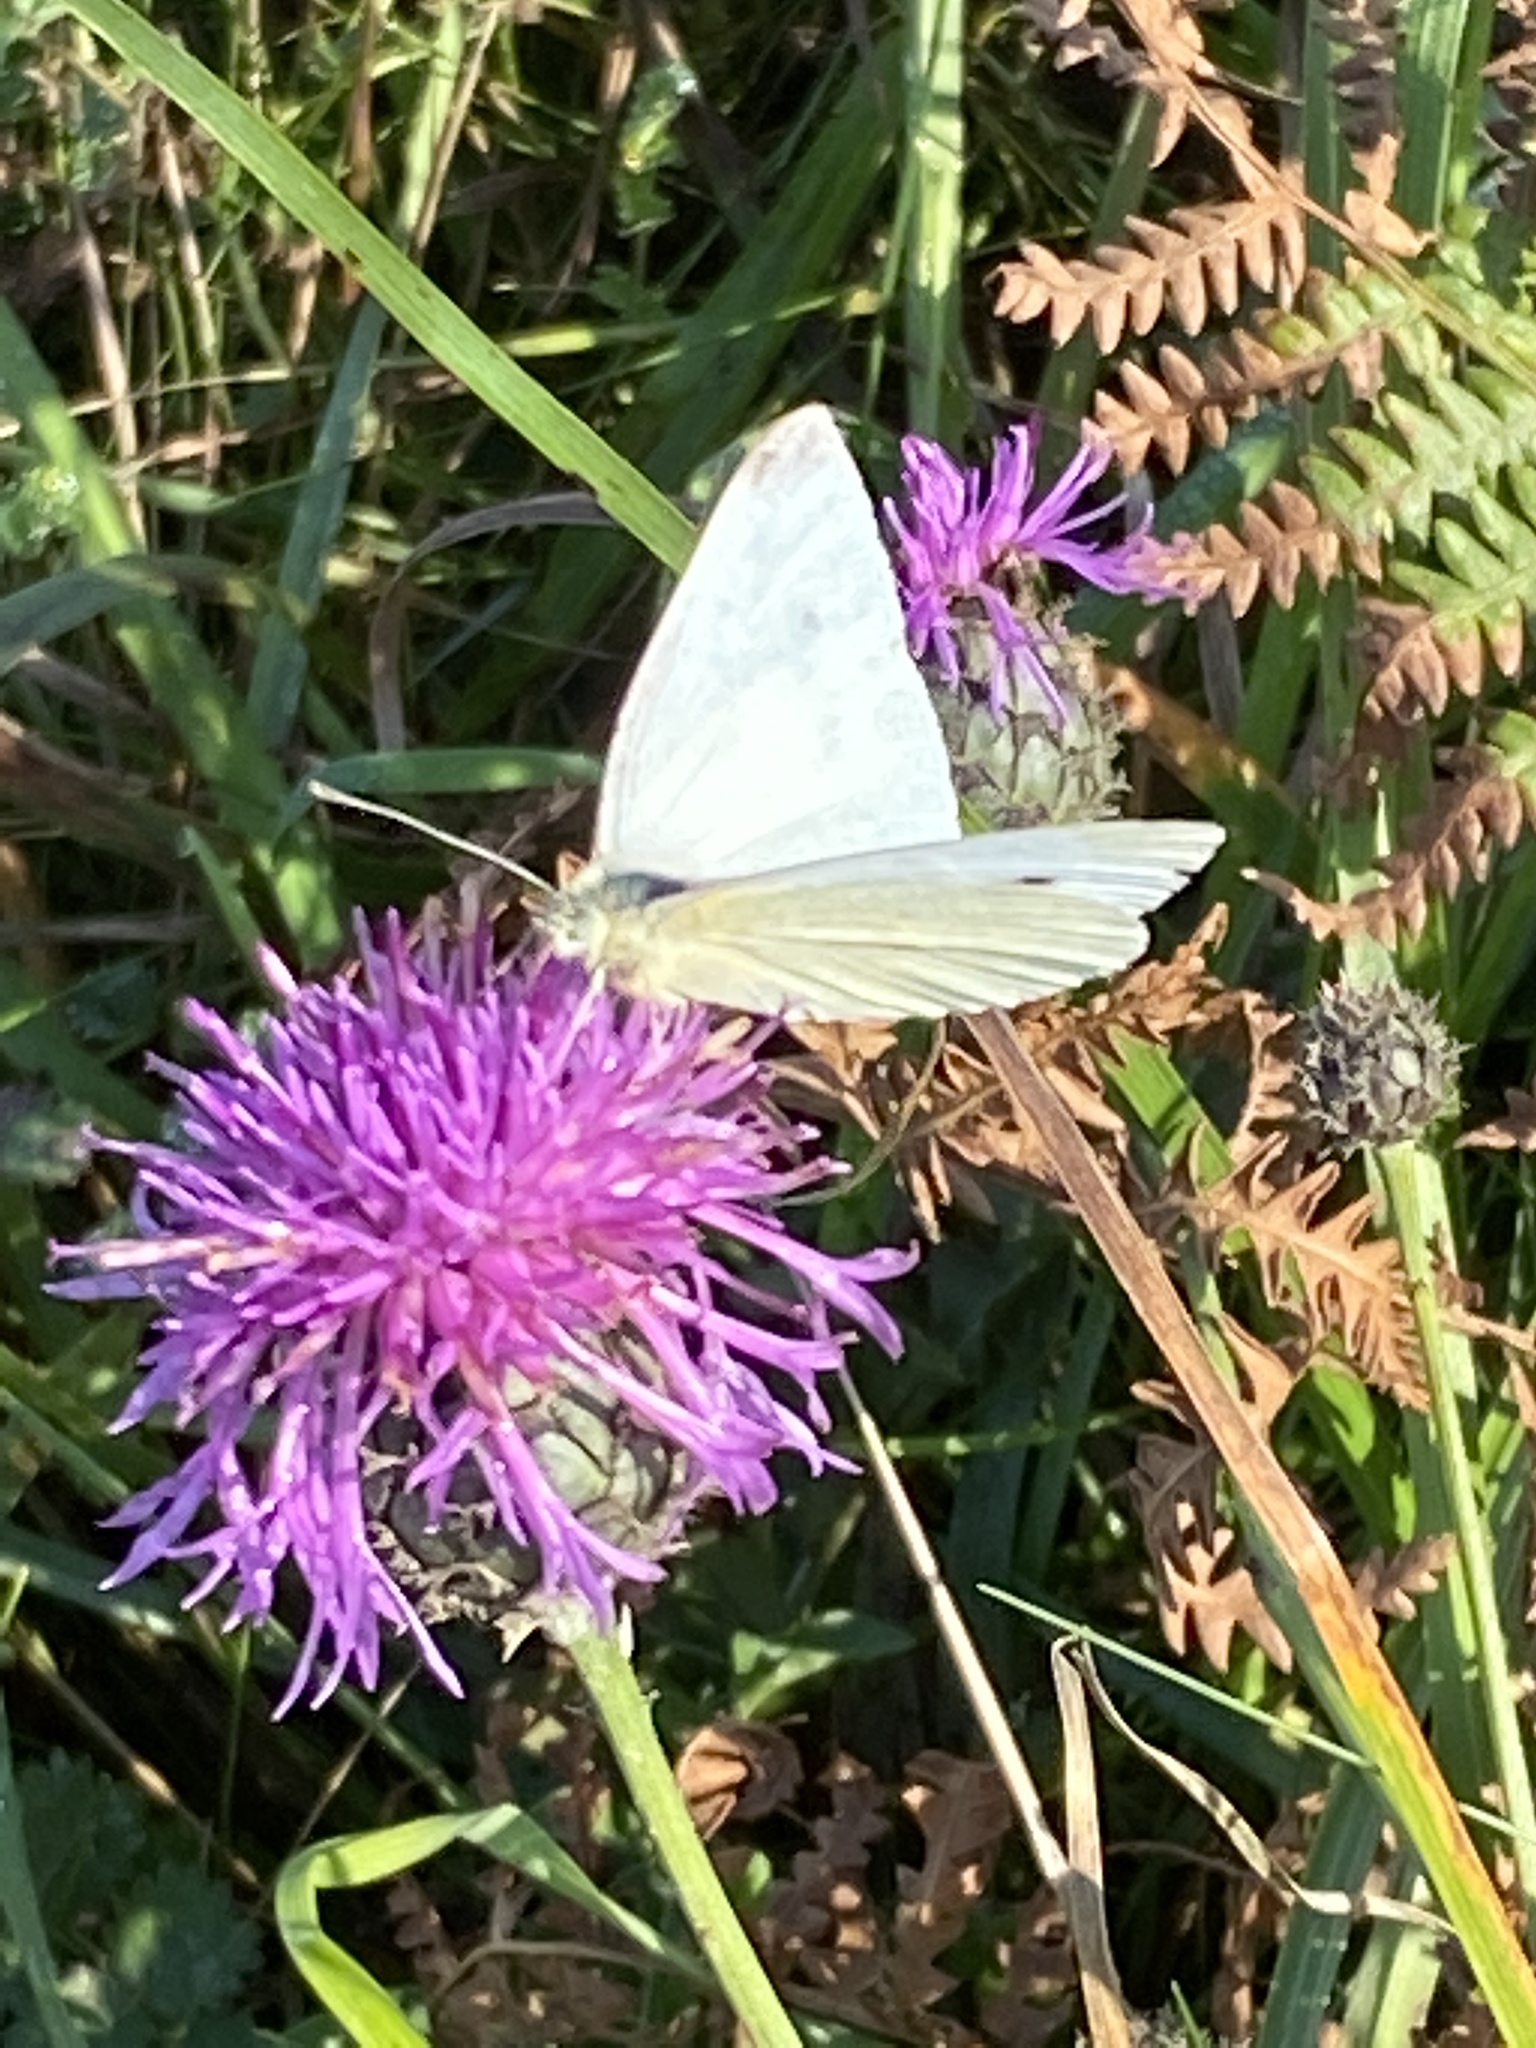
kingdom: Animalia
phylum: Arthropoda
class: Insecta
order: Lepidoptera
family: Pieridae
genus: Pieris
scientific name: Pieris rapae
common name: Small white
